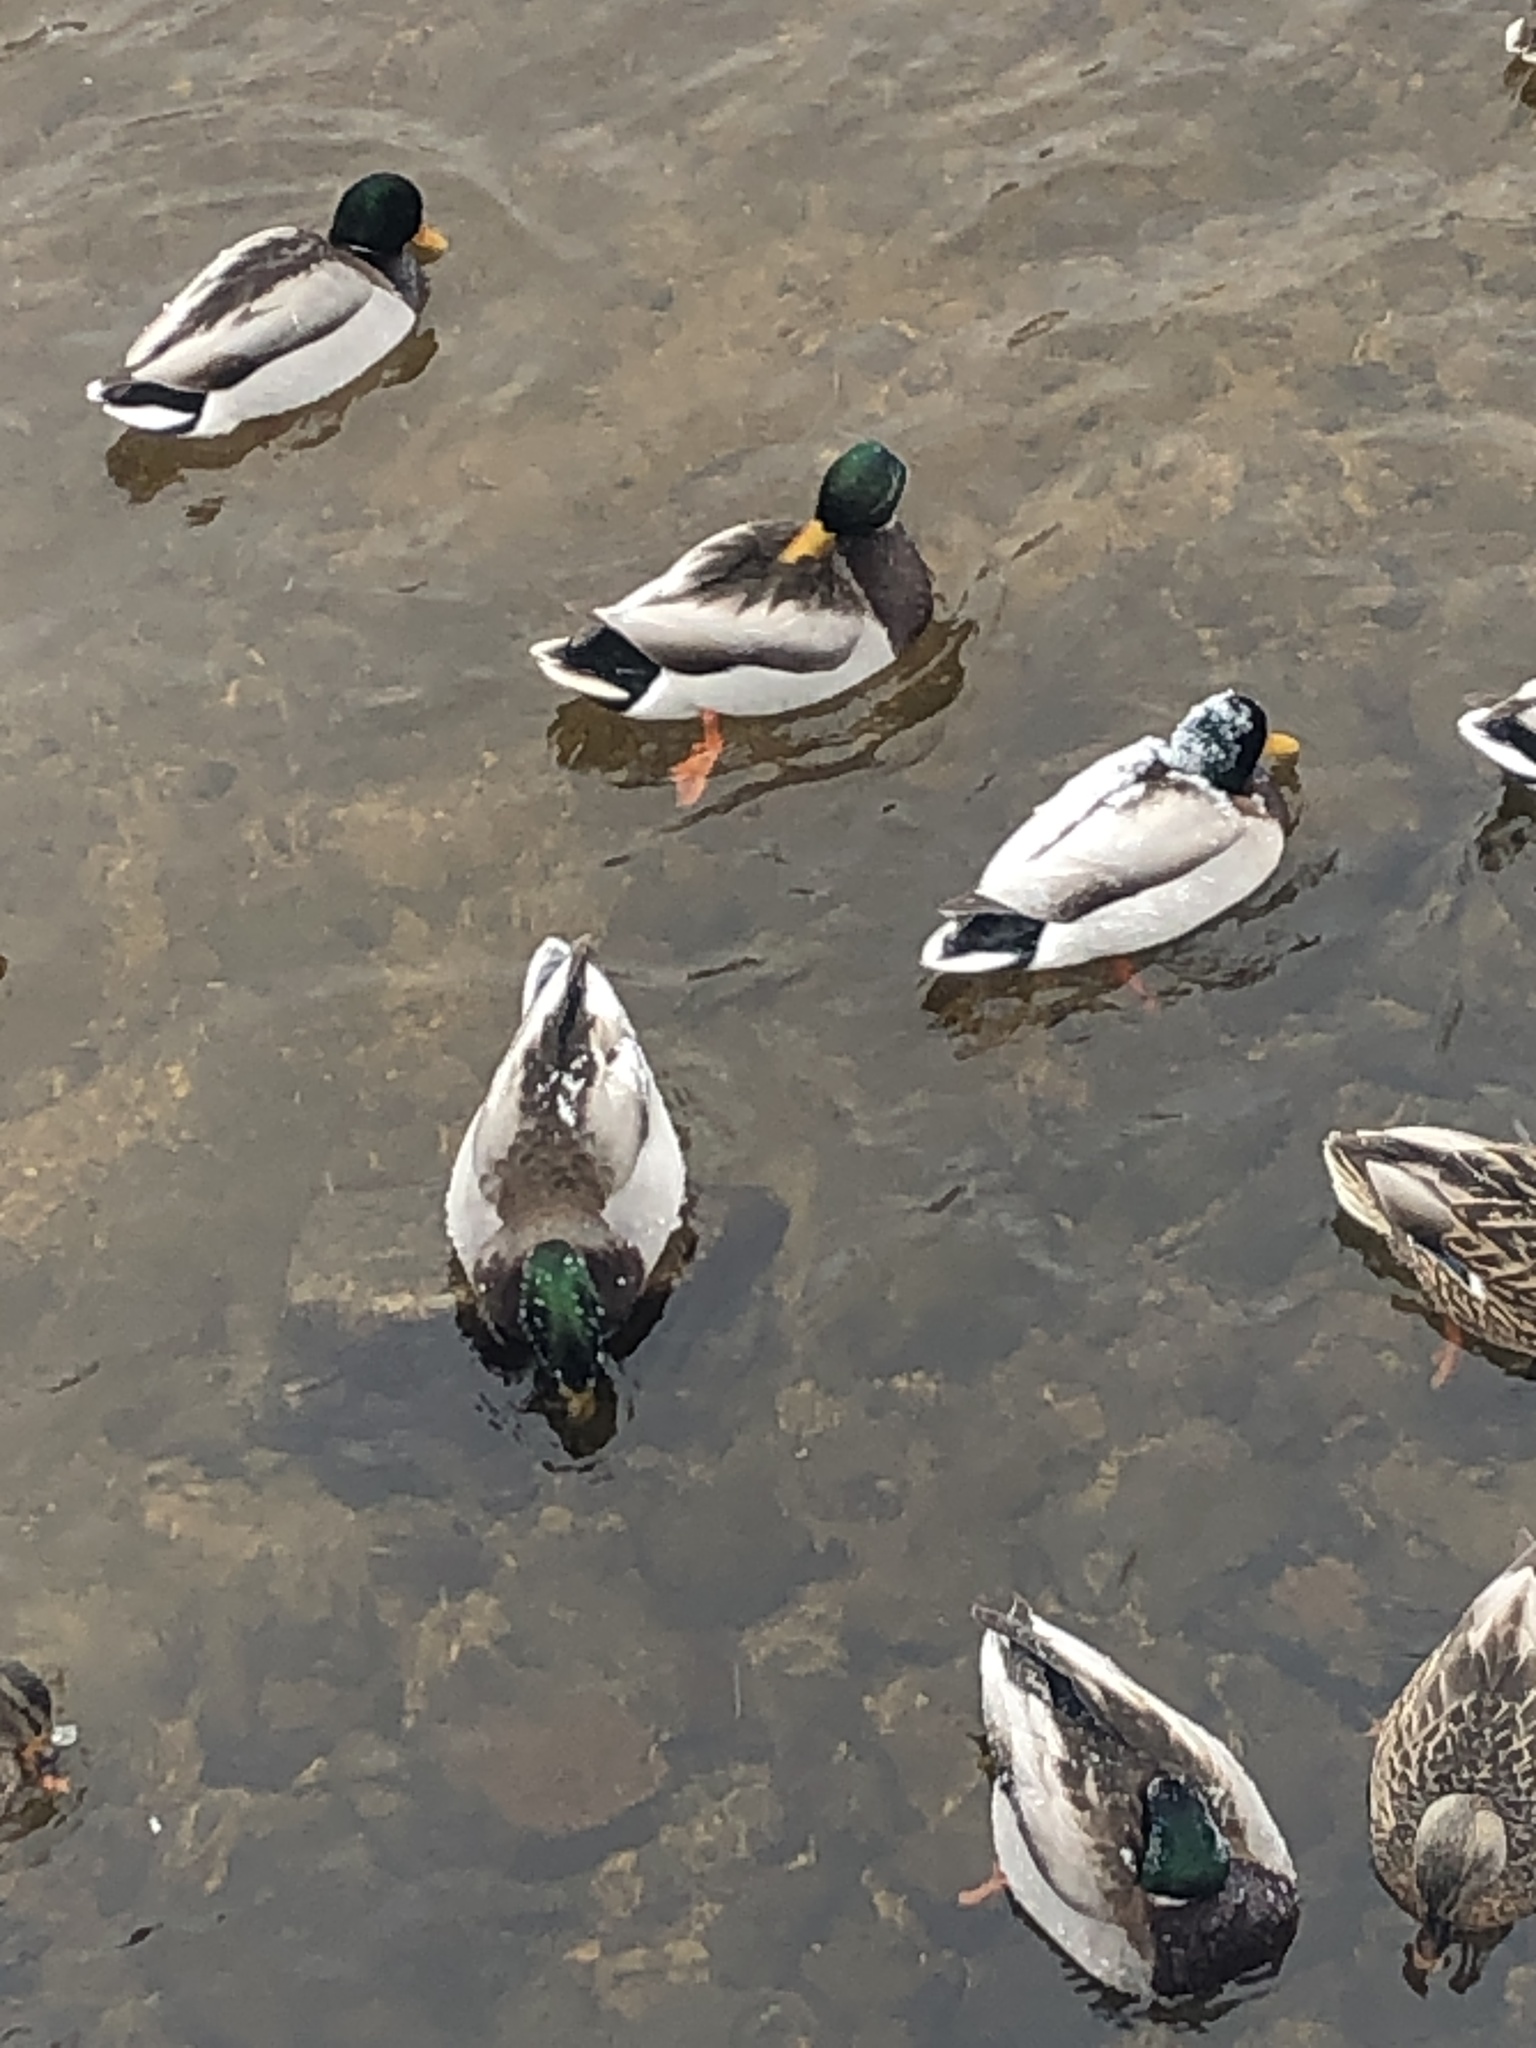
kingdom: Animalia
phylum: Chordata
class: Aves
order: Anseriformes
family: Anatidae
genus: Anas
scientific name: Anas platyrhynchos
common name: Mallard
